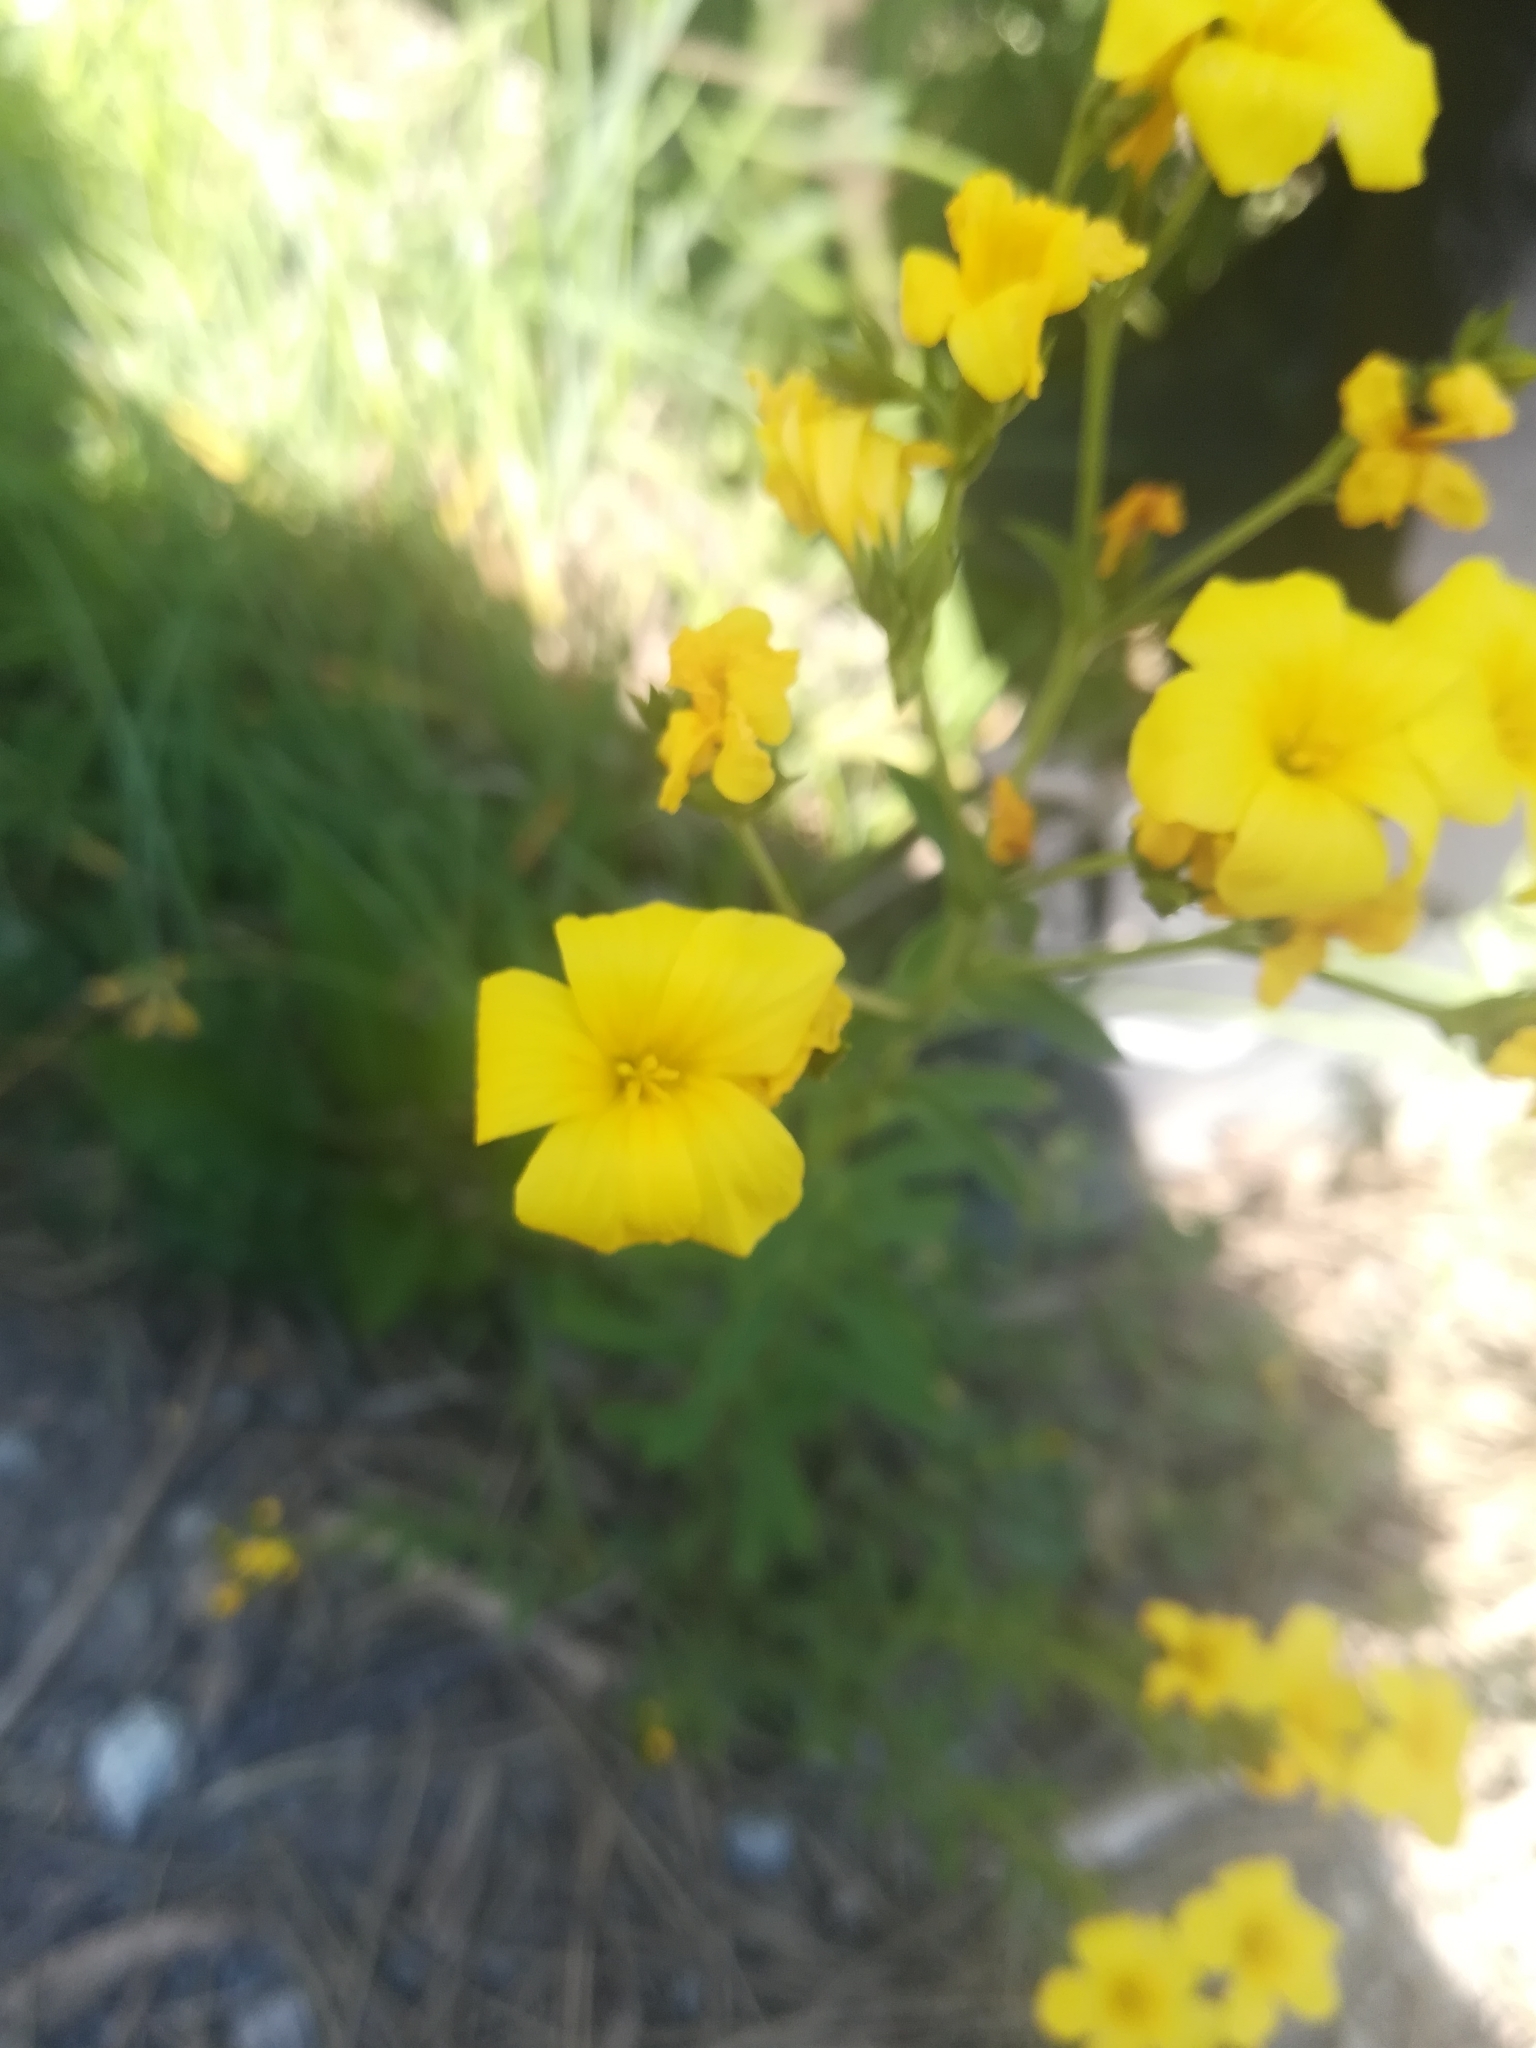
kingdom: Plantae
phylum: Tracheophyta
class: Magnoliopsida
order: Malpighiales
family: Linaceae
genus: Linum
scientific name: Linum flavum
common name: Yellow flax
